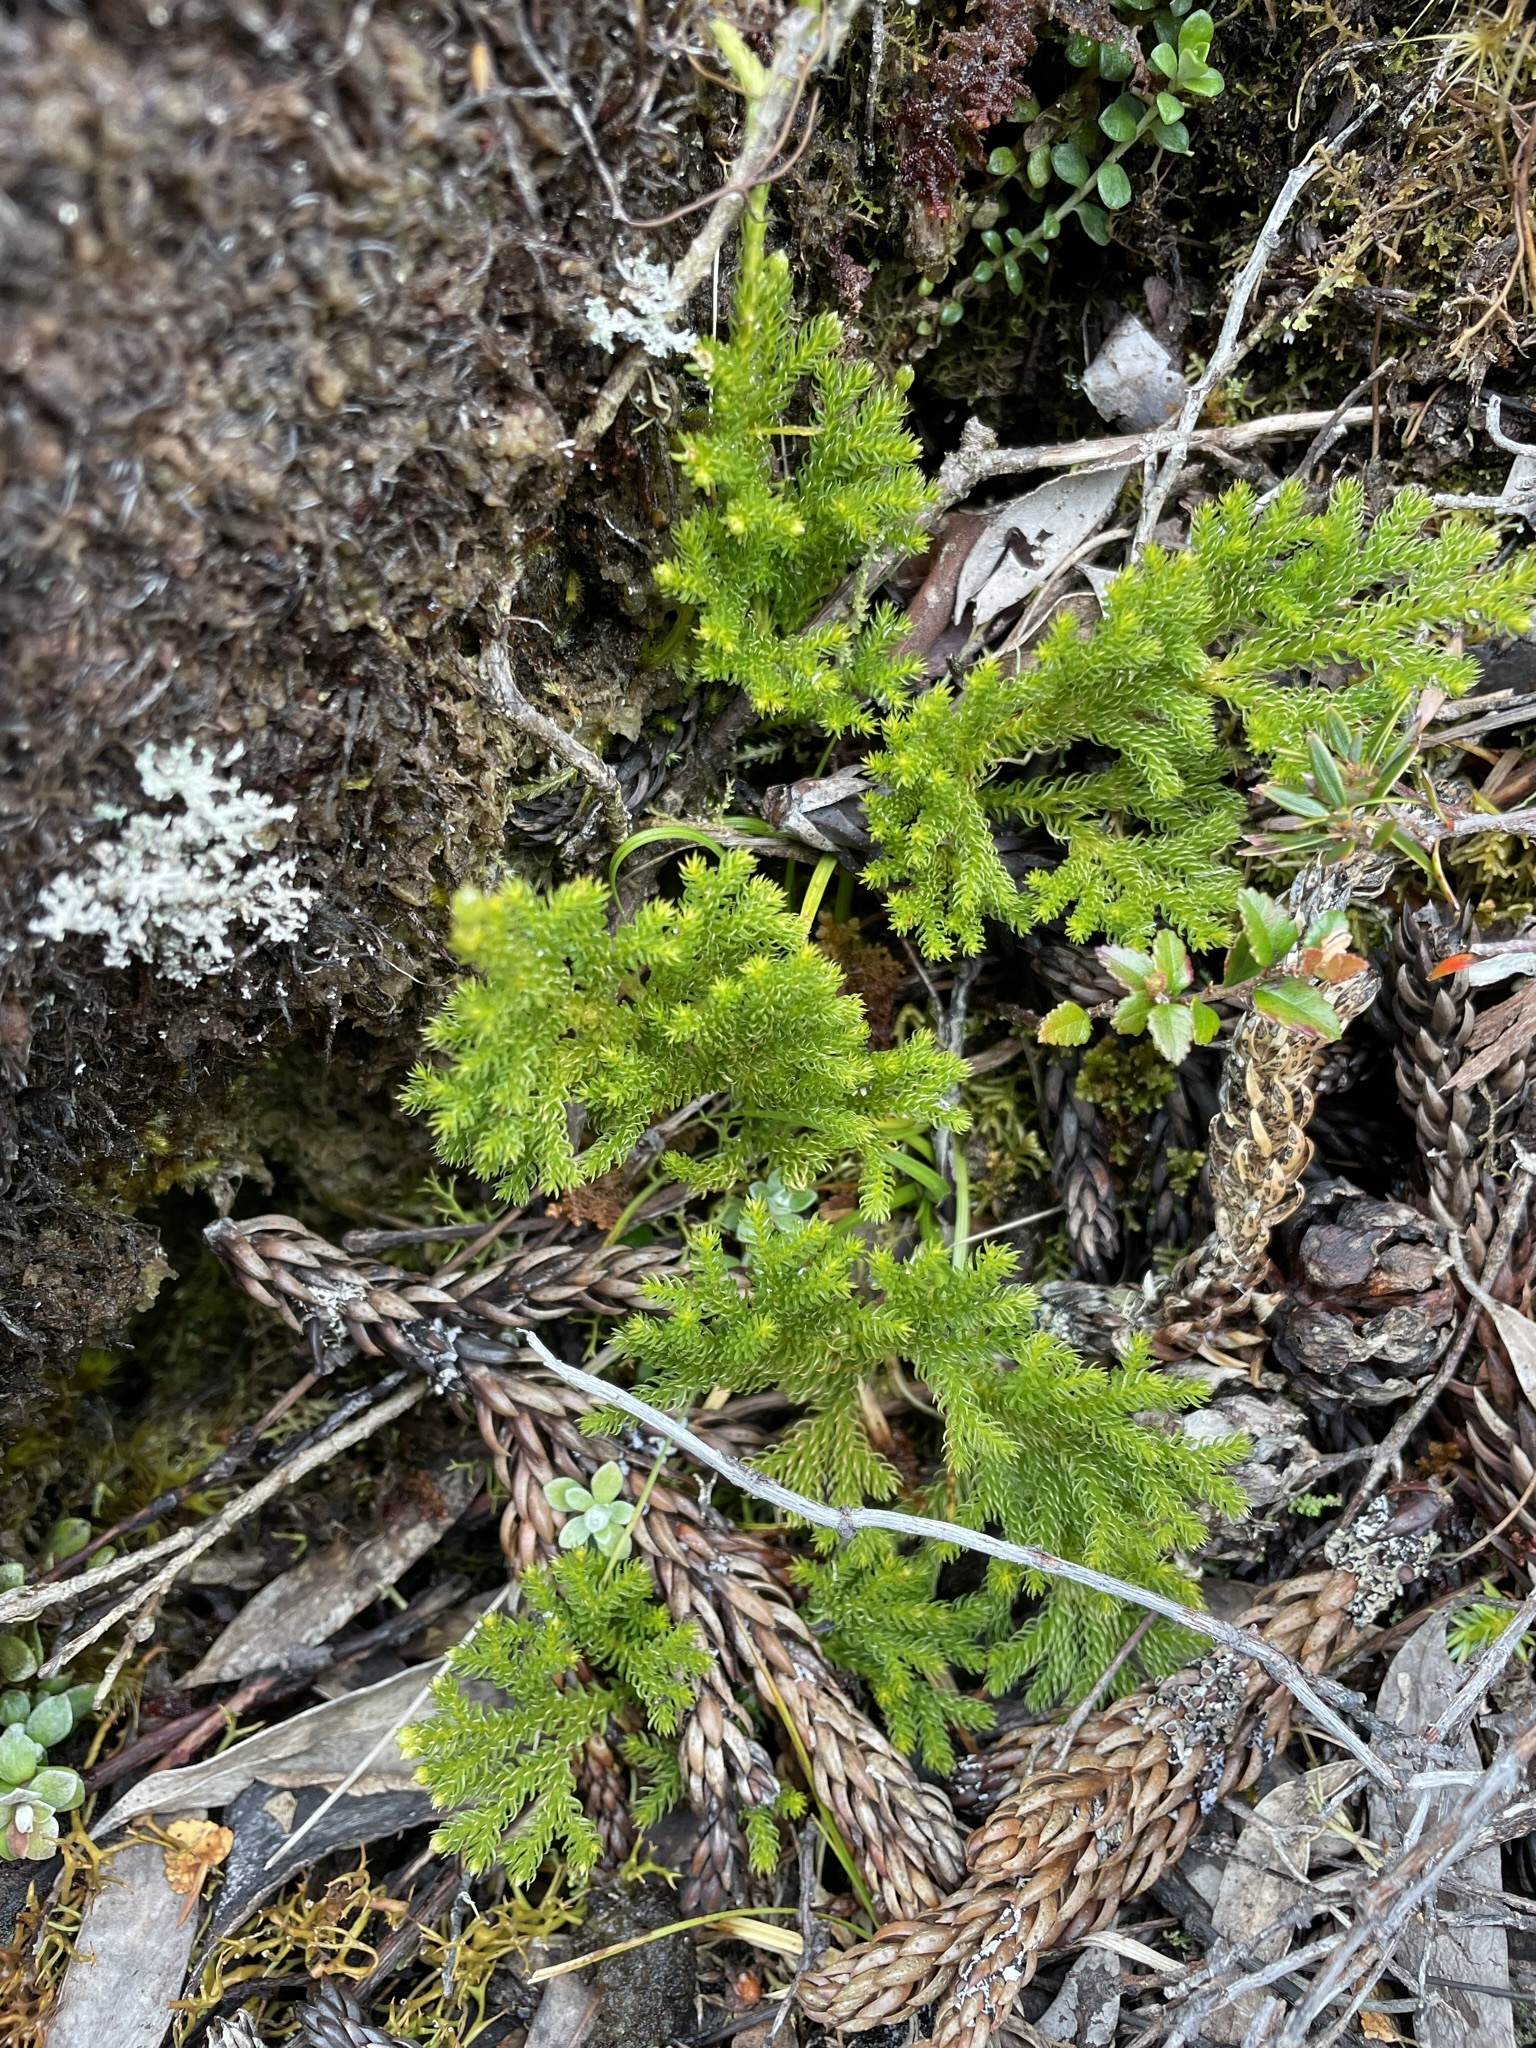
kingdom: Plantae
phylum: Tracheophyta
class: Lycopodiopsida
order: Lycopodiales
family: Lycopodiaceae
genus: Austrolycopodium
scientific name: Austrolycopodium fastigiatum
